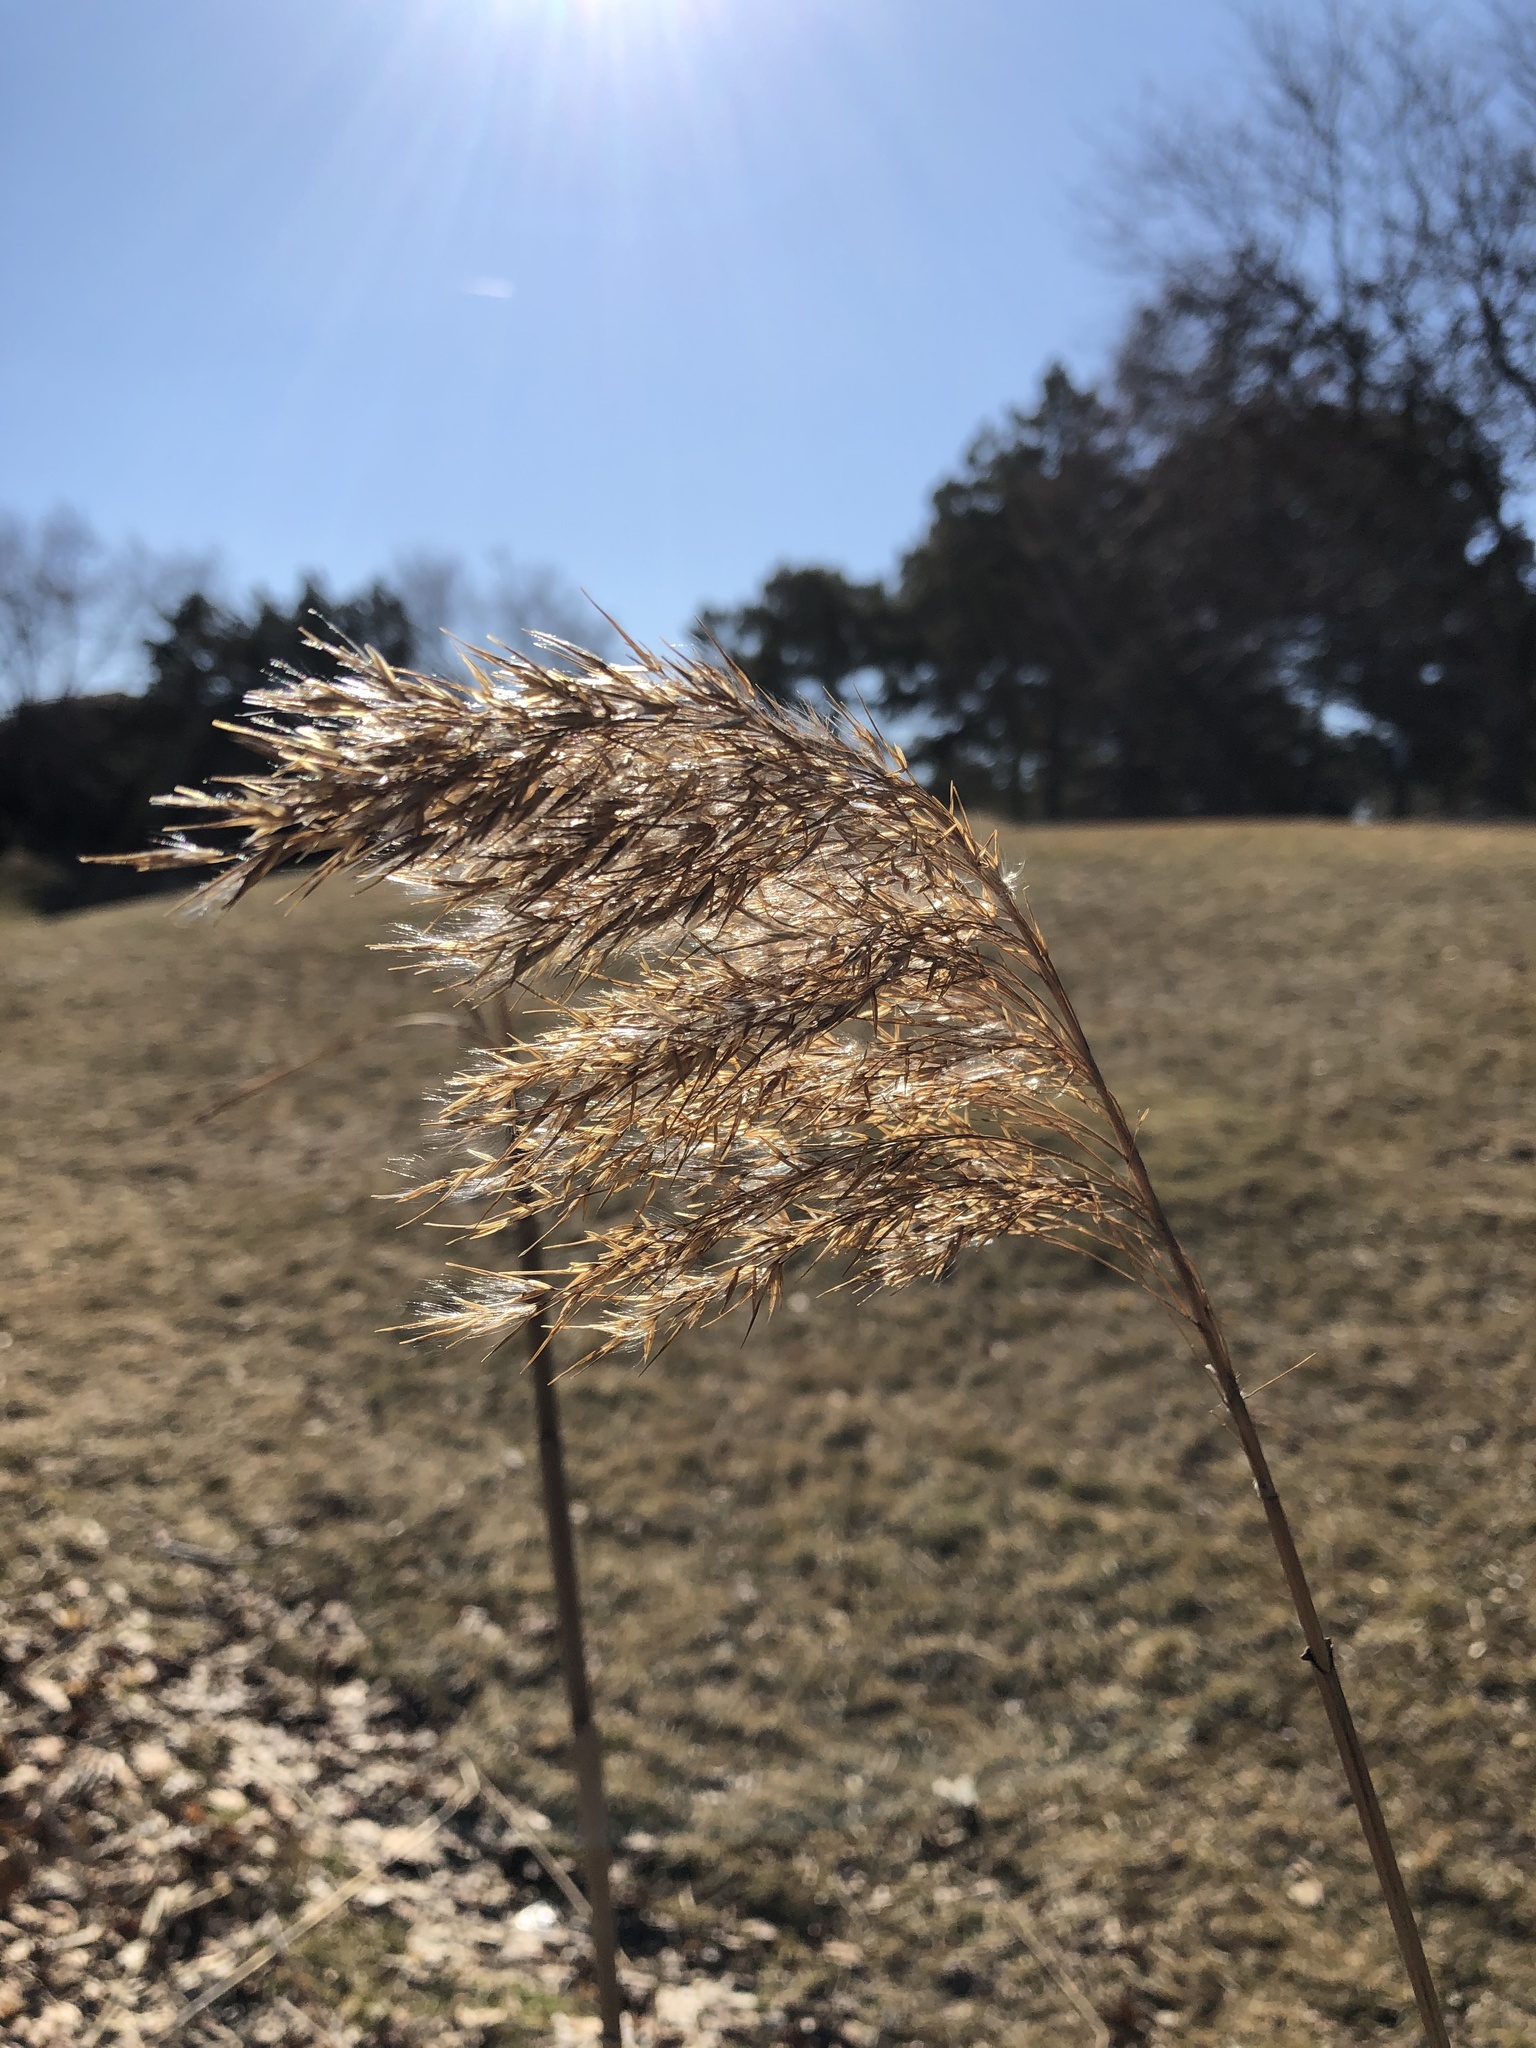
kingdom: Plantae
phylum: Tracheophyta
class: Liliopsida
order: Poales
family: Poaceae
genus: Phragmites
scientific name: Phragmites australis
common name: Common reed
